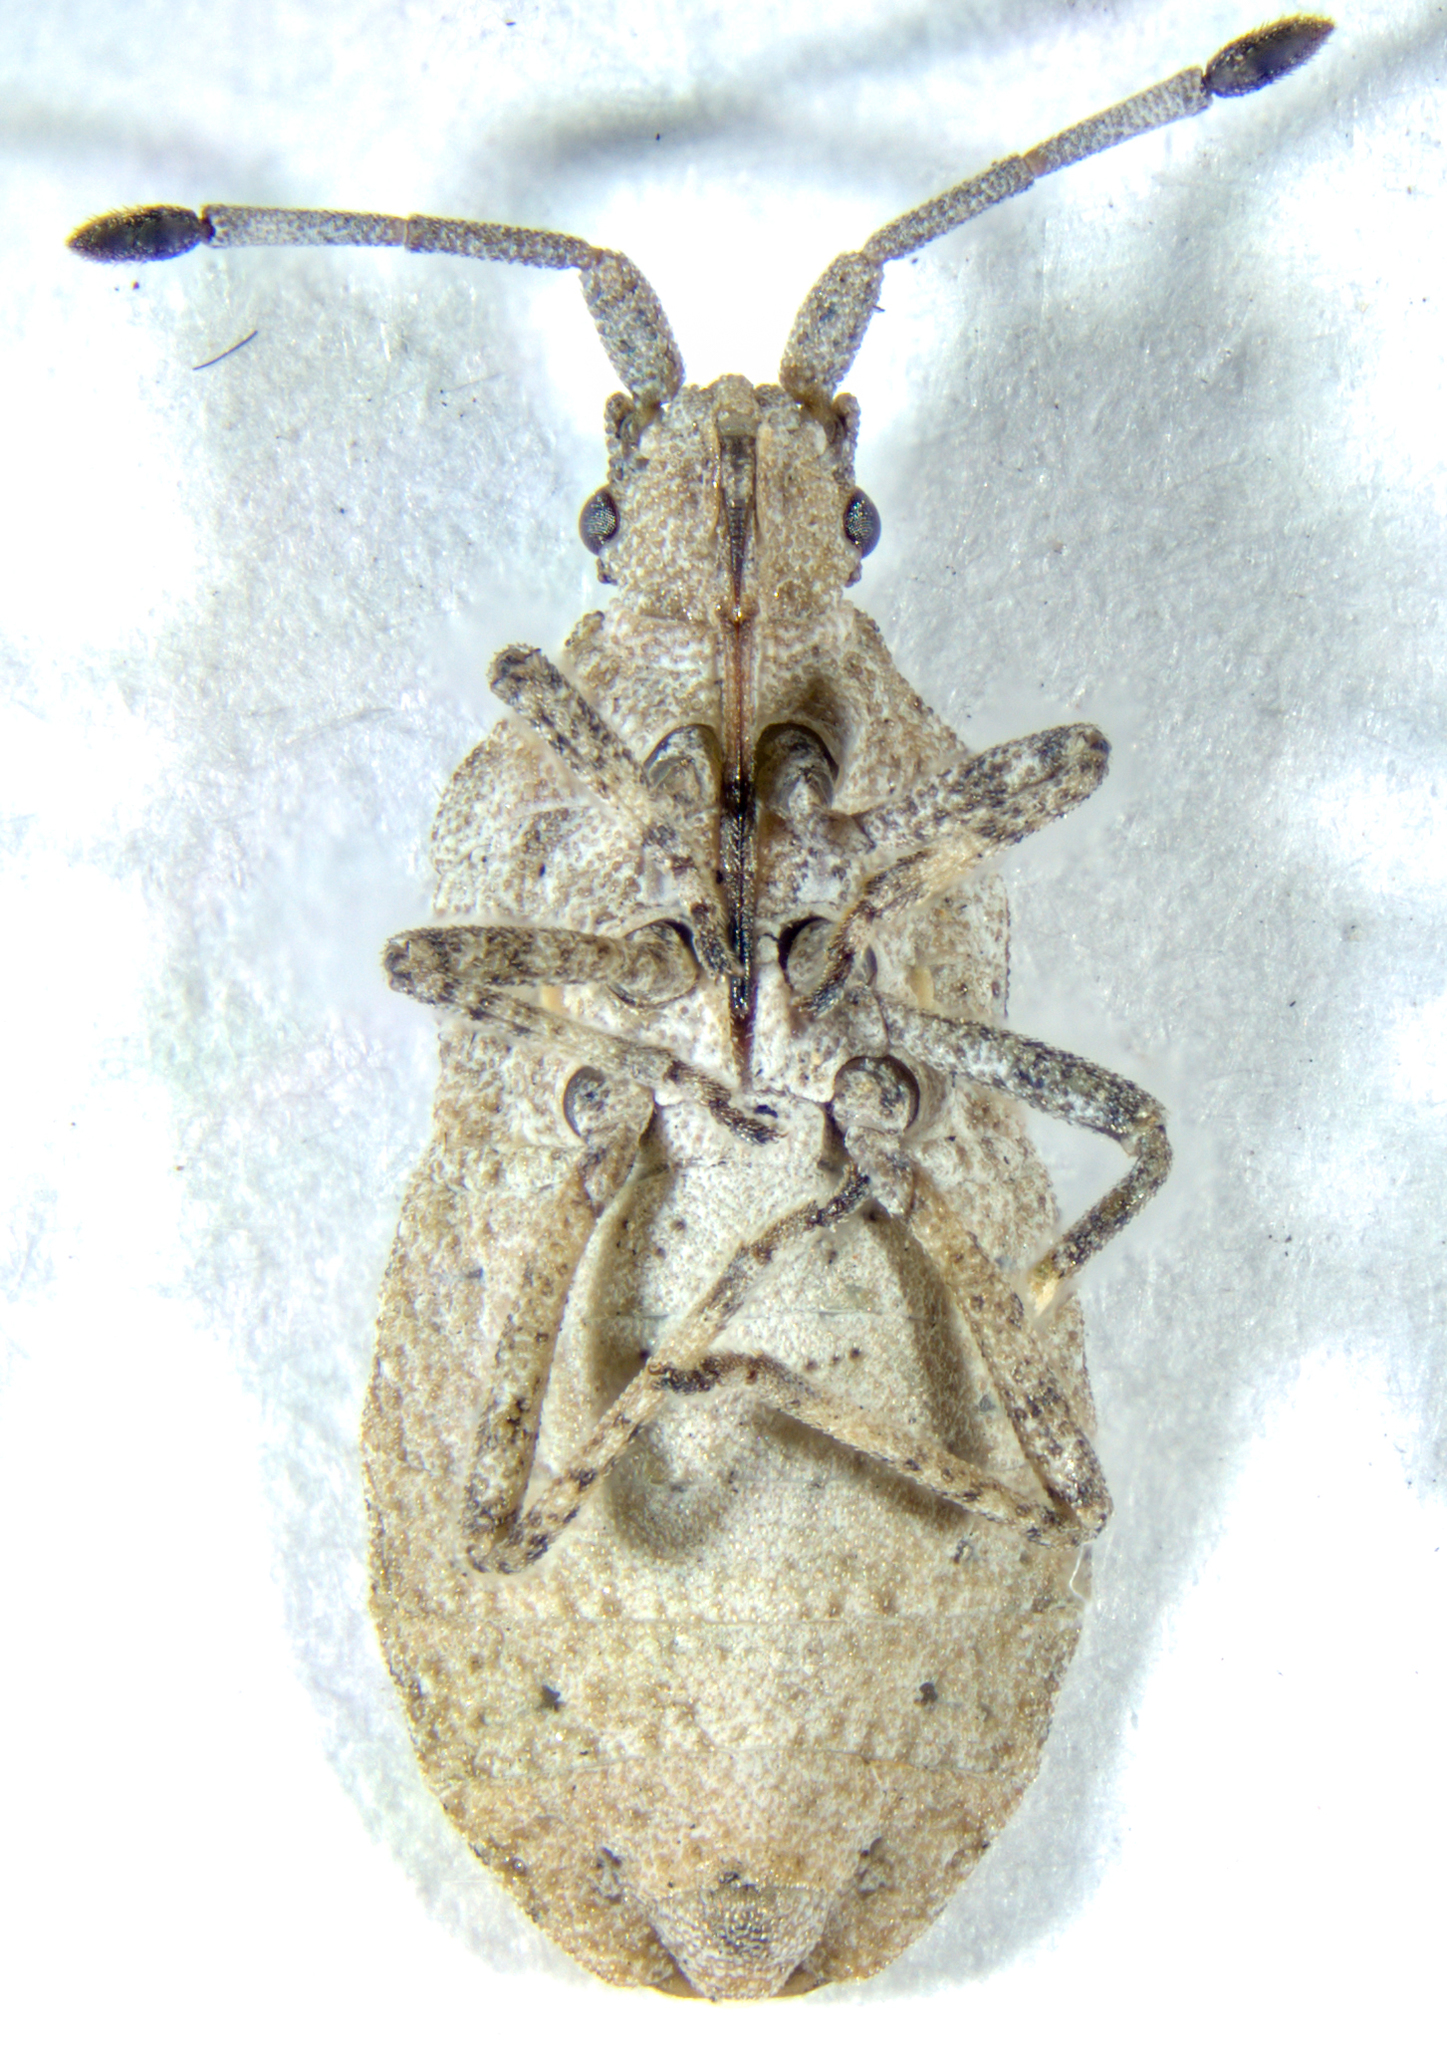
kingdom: Animalia
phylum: Arthropoda
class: Insecta
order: Hemiptera
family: Coreidae
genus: Scolopocerus
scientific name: Scolopocerus uhleri
